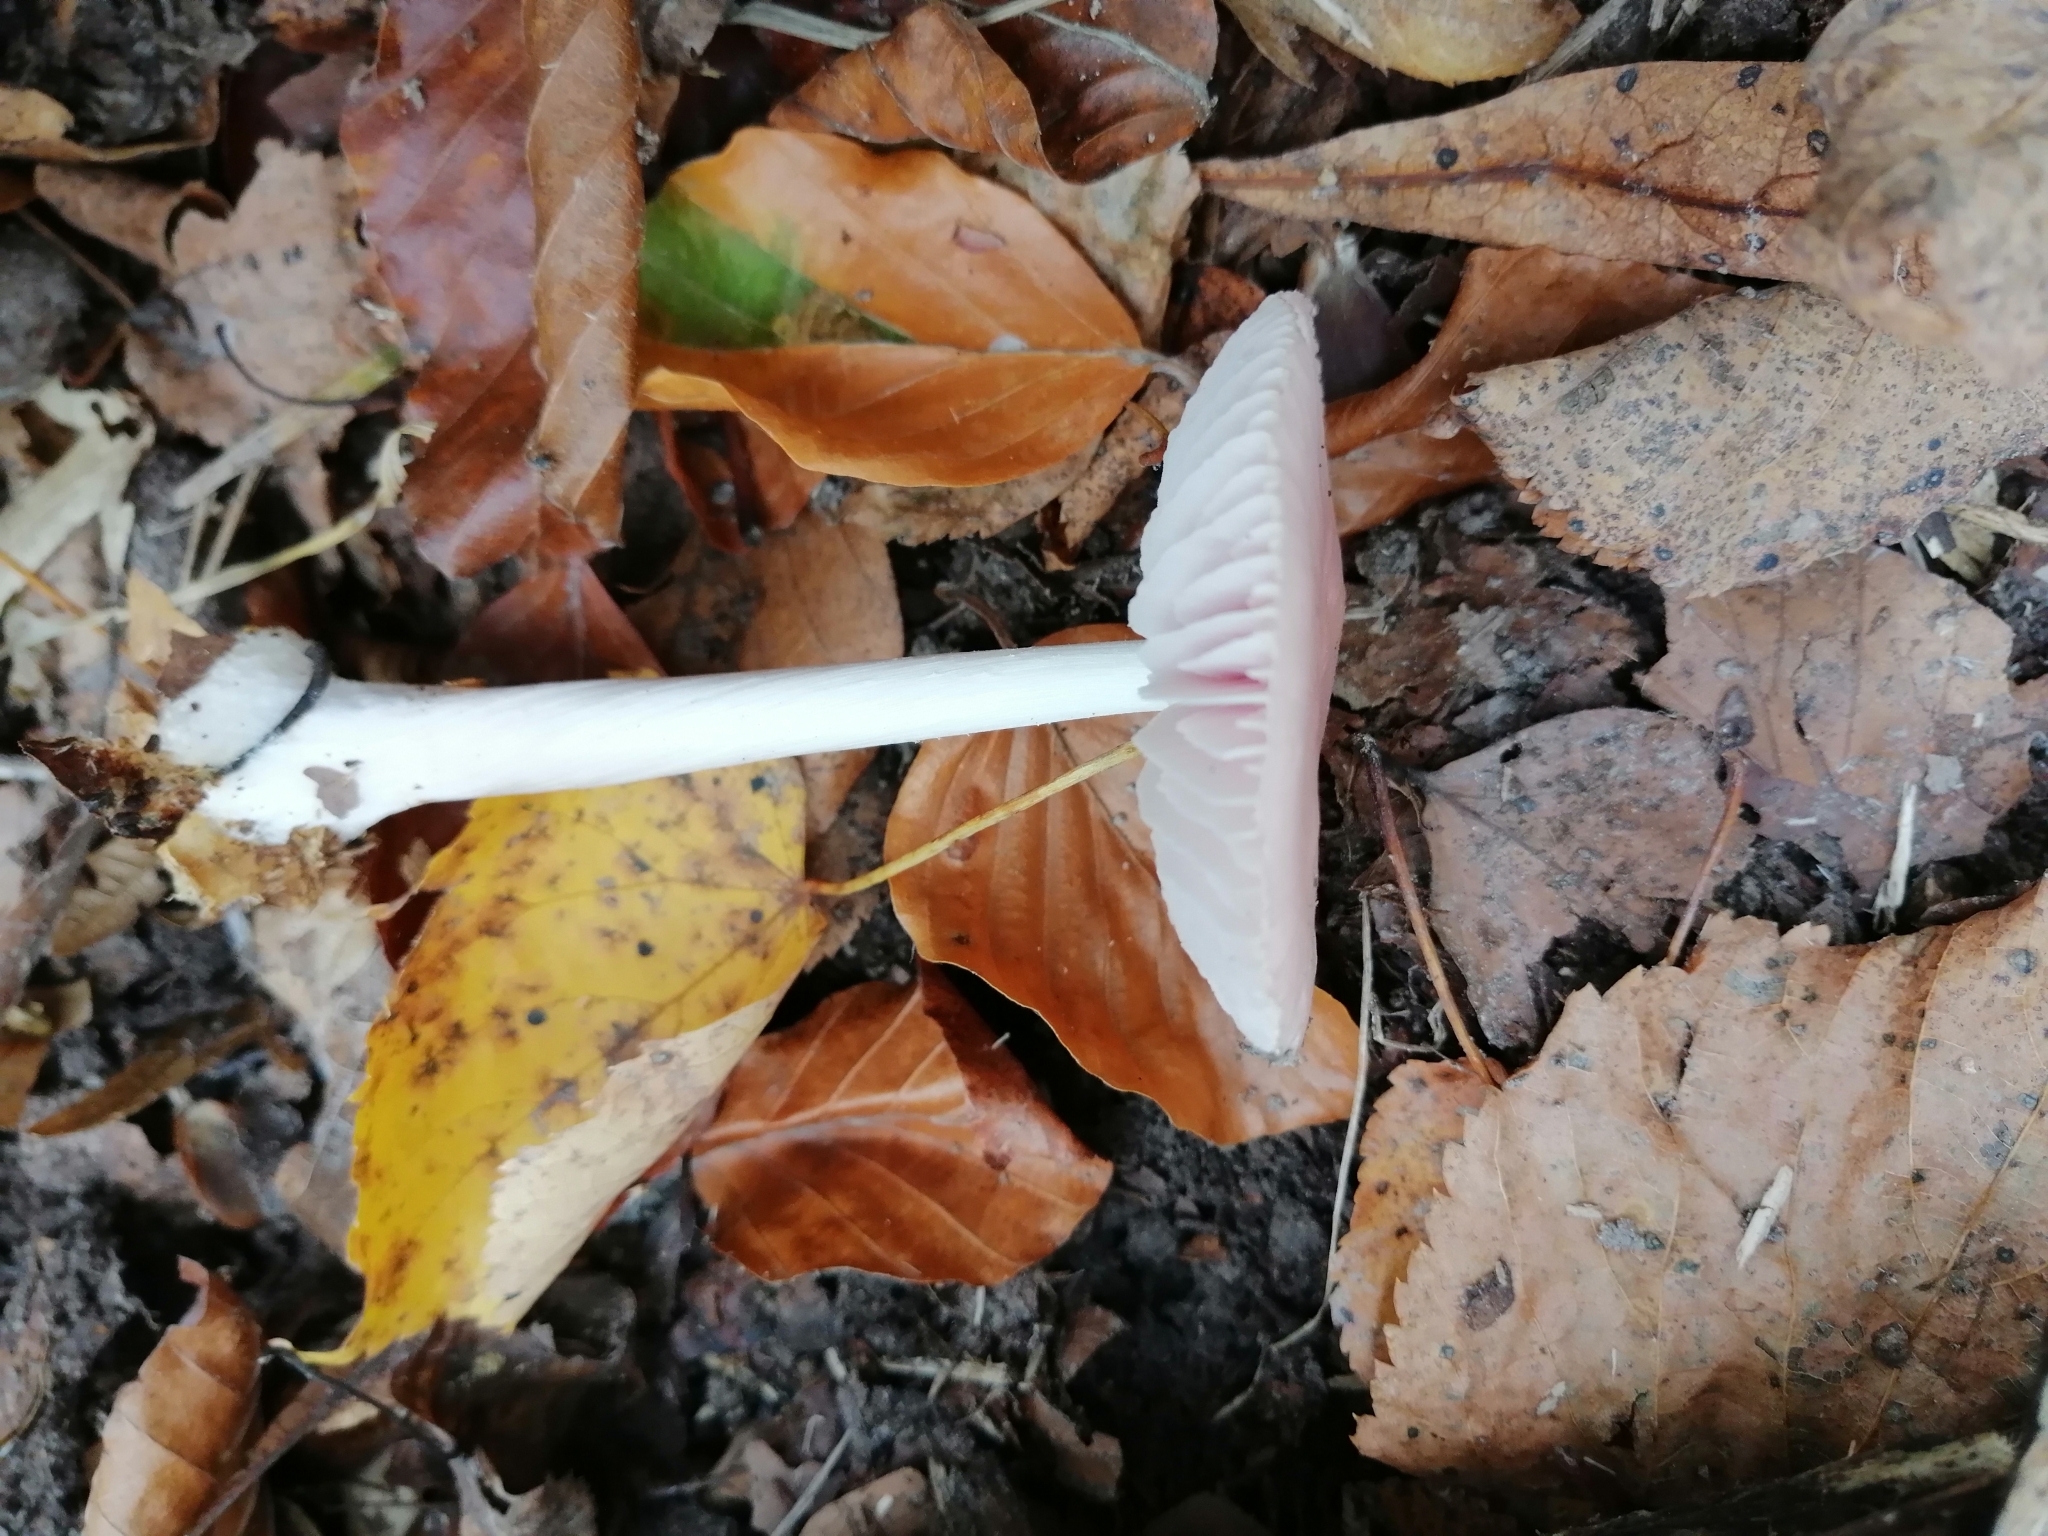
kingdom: Fungi
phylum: Basidiomycota
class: Agaricomycetes
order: Agaricales
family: Mycenaceae
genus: Mycena
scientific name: Mycena rosea
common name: Rosy bonnet
